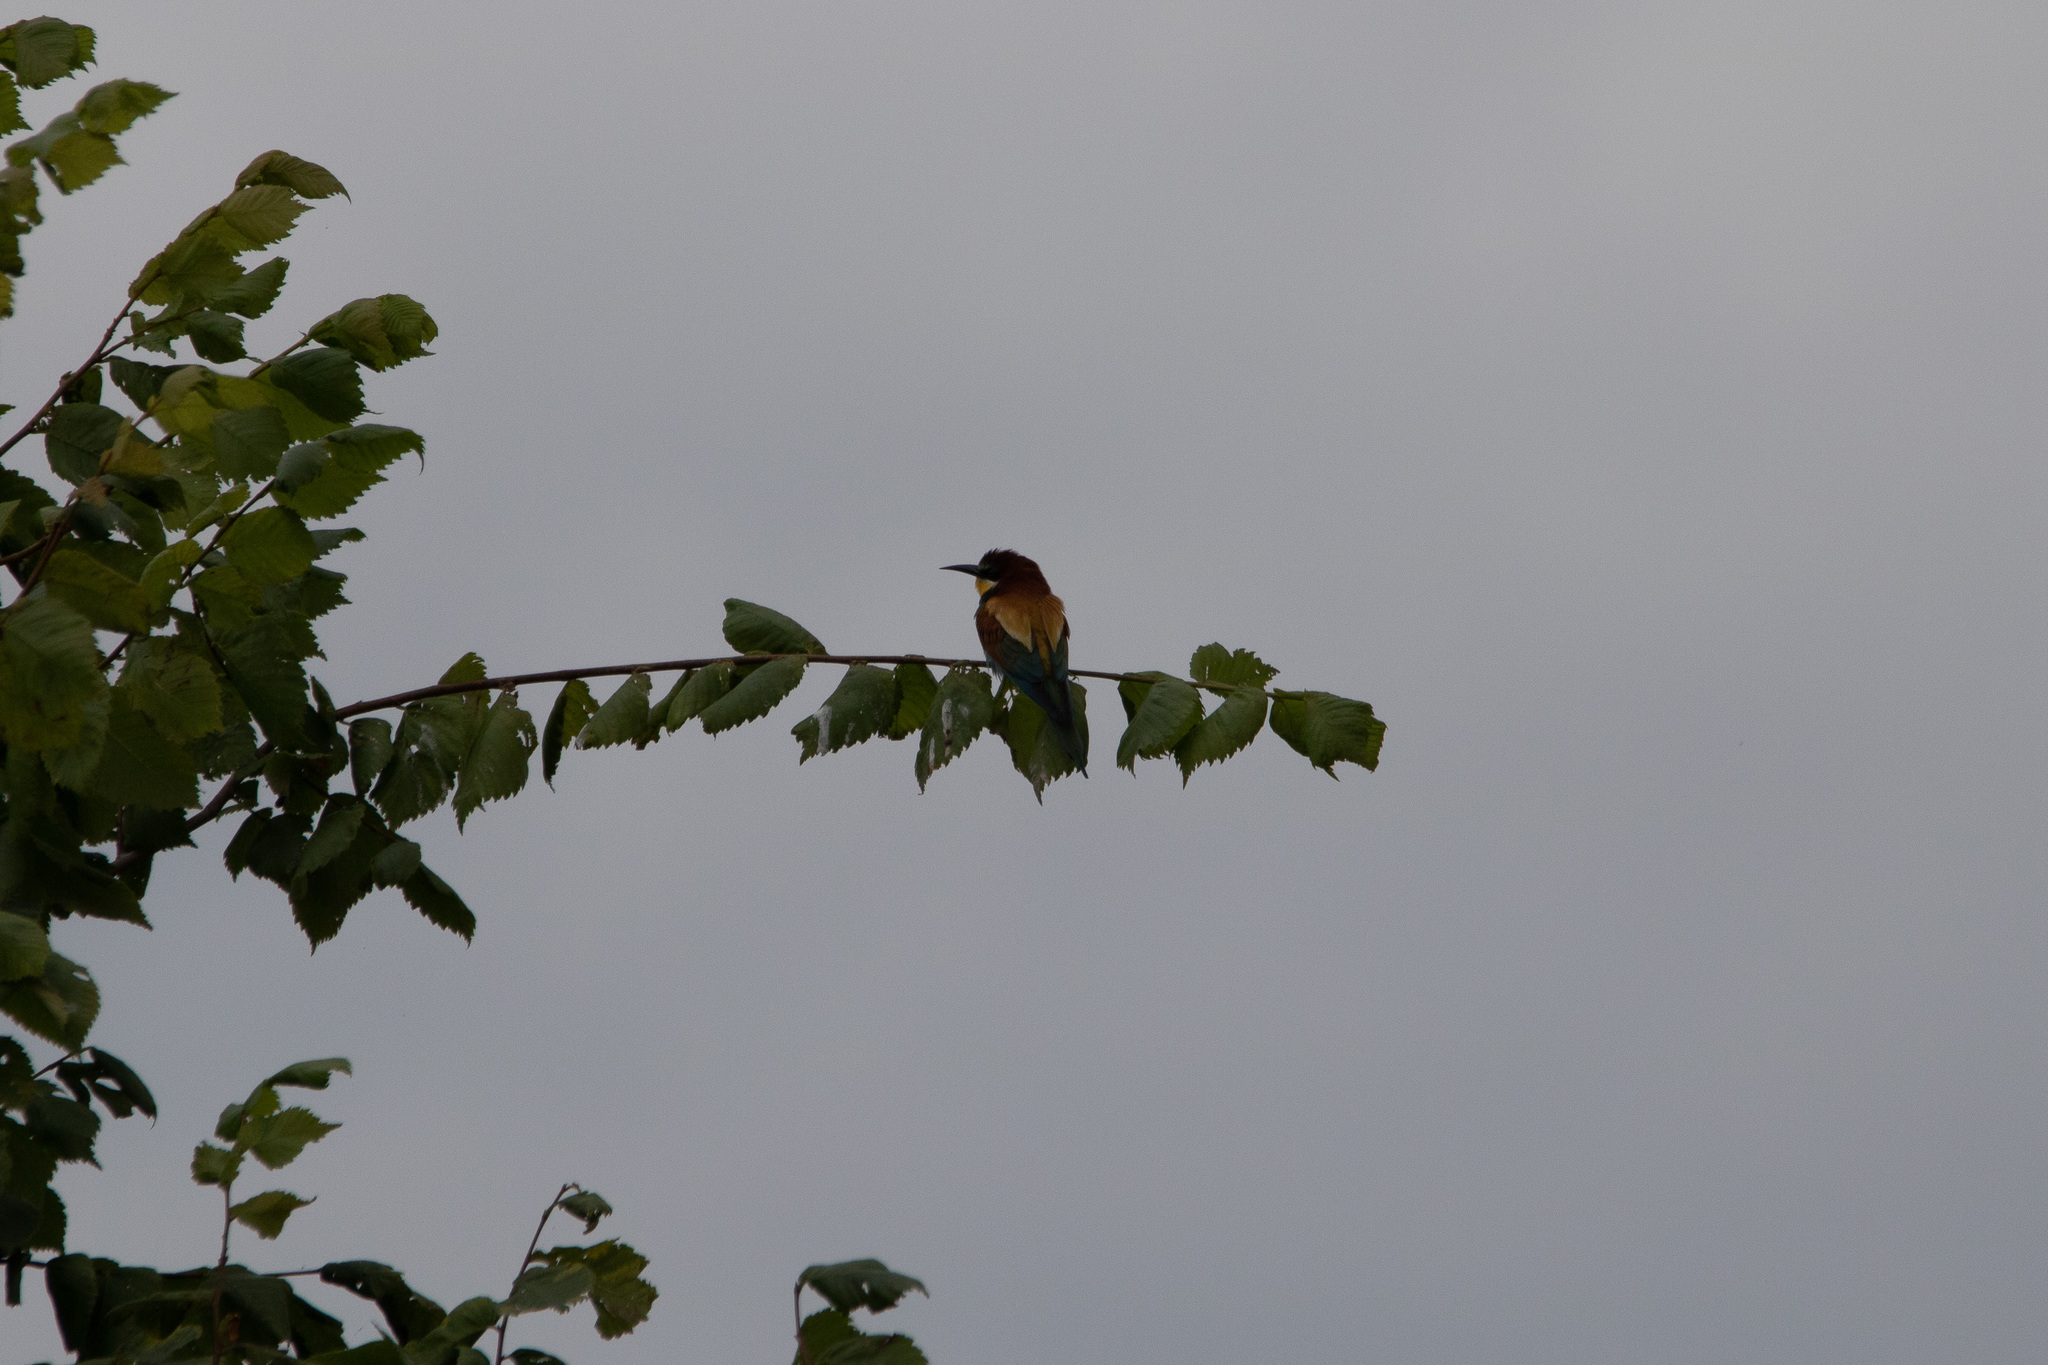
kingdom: Animalia
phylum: Chordata
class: Aves
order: Coraciiformes
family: Meropidae
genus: Merops
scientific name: Merops apiaster
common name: European bee-eater
